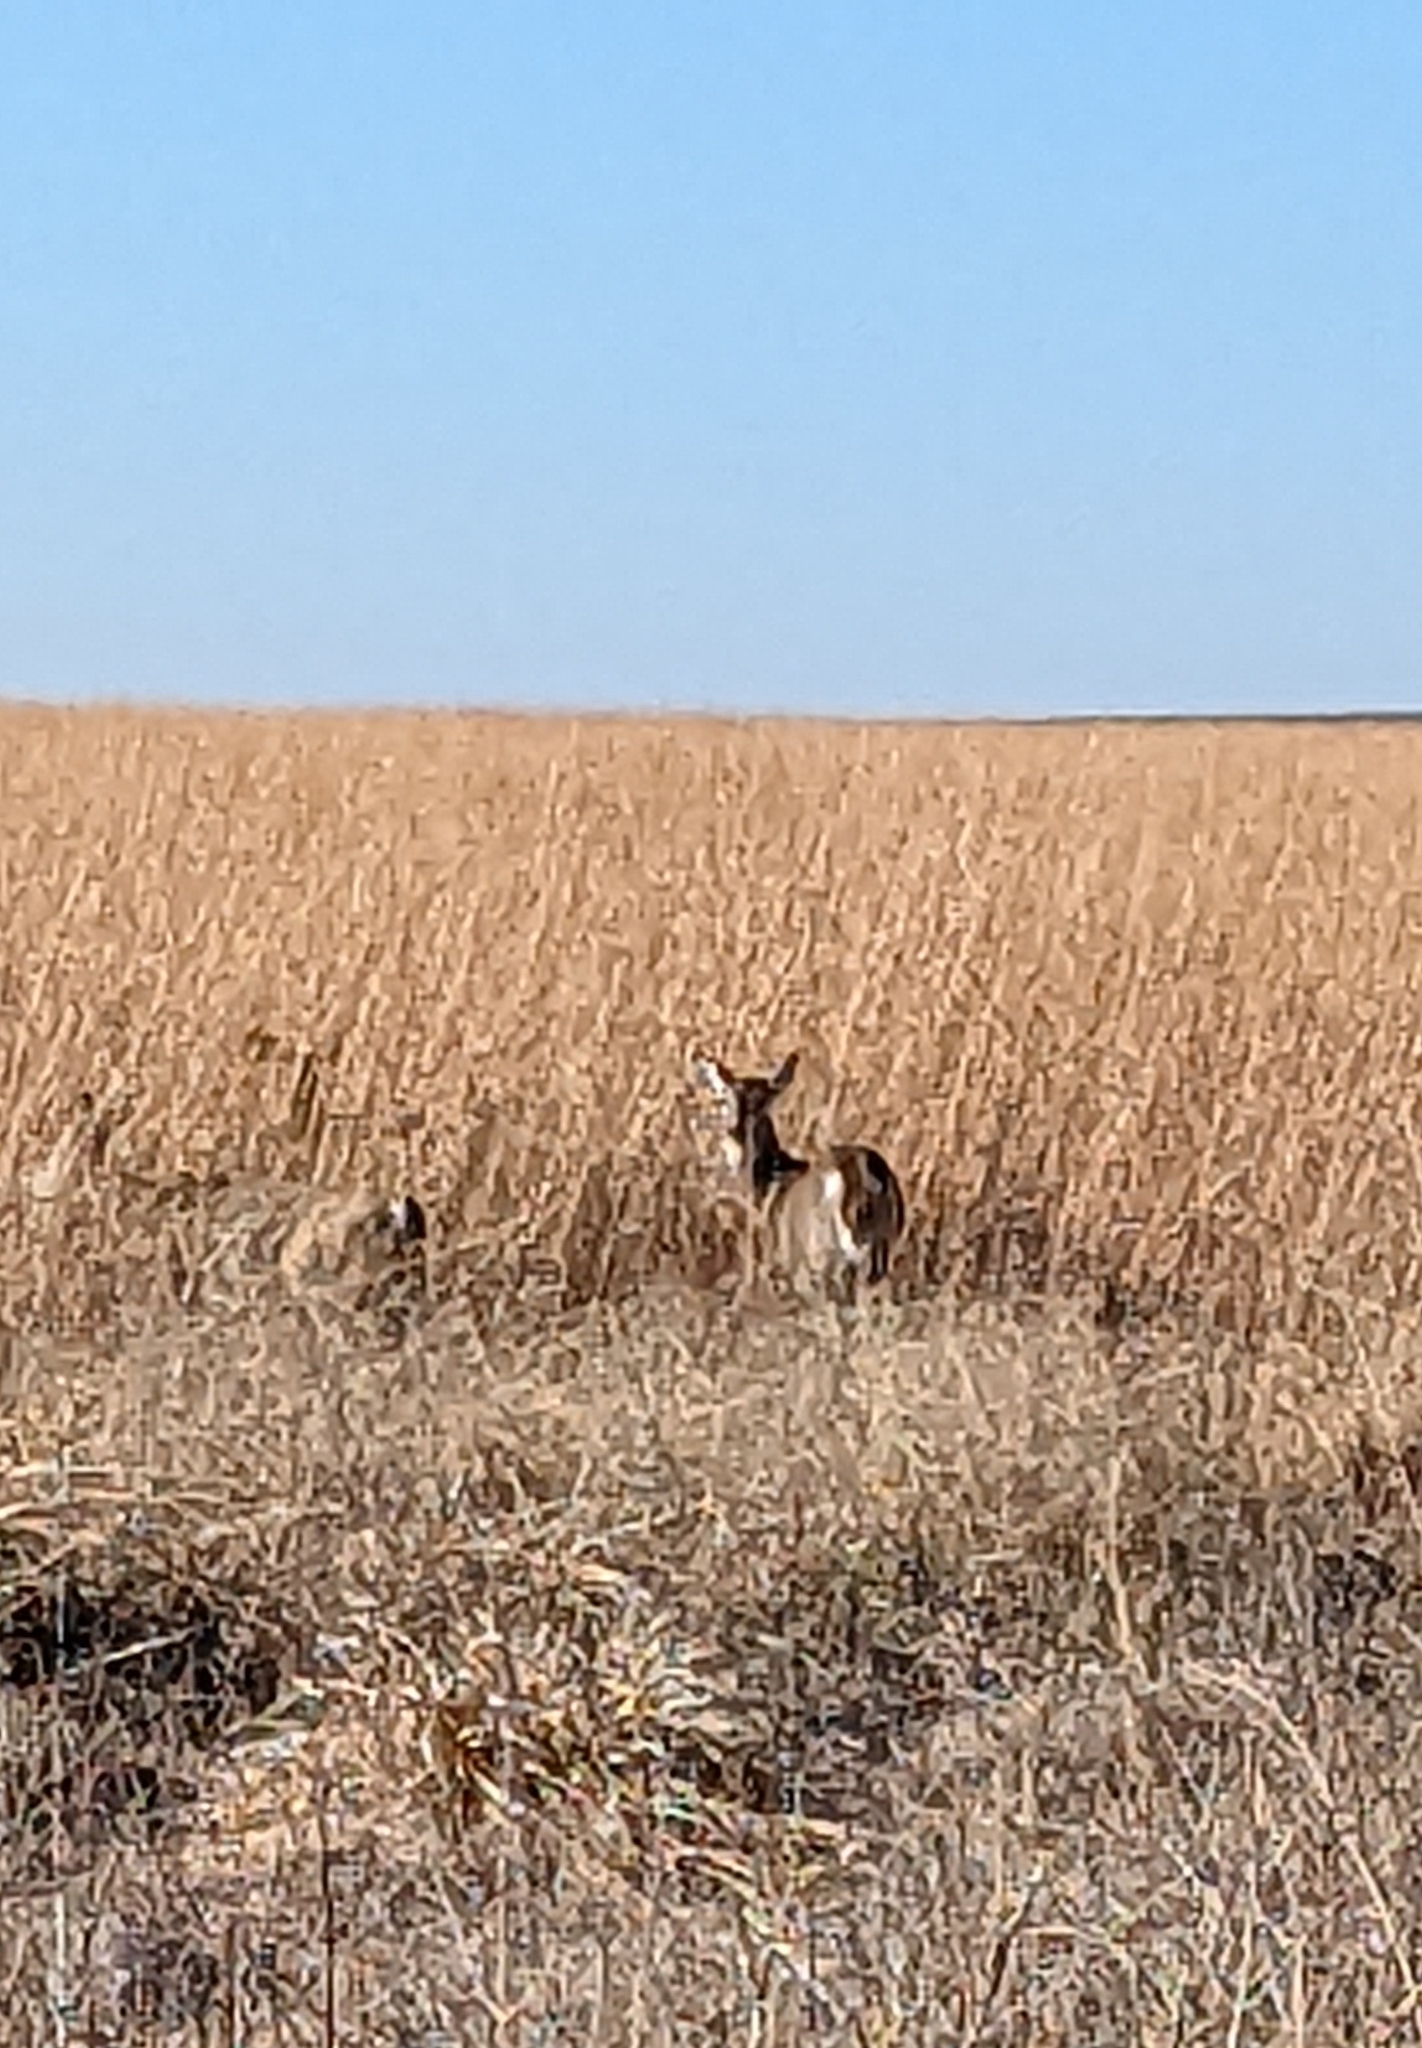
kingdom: Animalia
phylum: Chordata
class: Mammalia
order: Artiodactyla
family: Cervidae
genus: Odocoileus
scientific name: Odocoileus virginianus
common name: White-tailed deer
